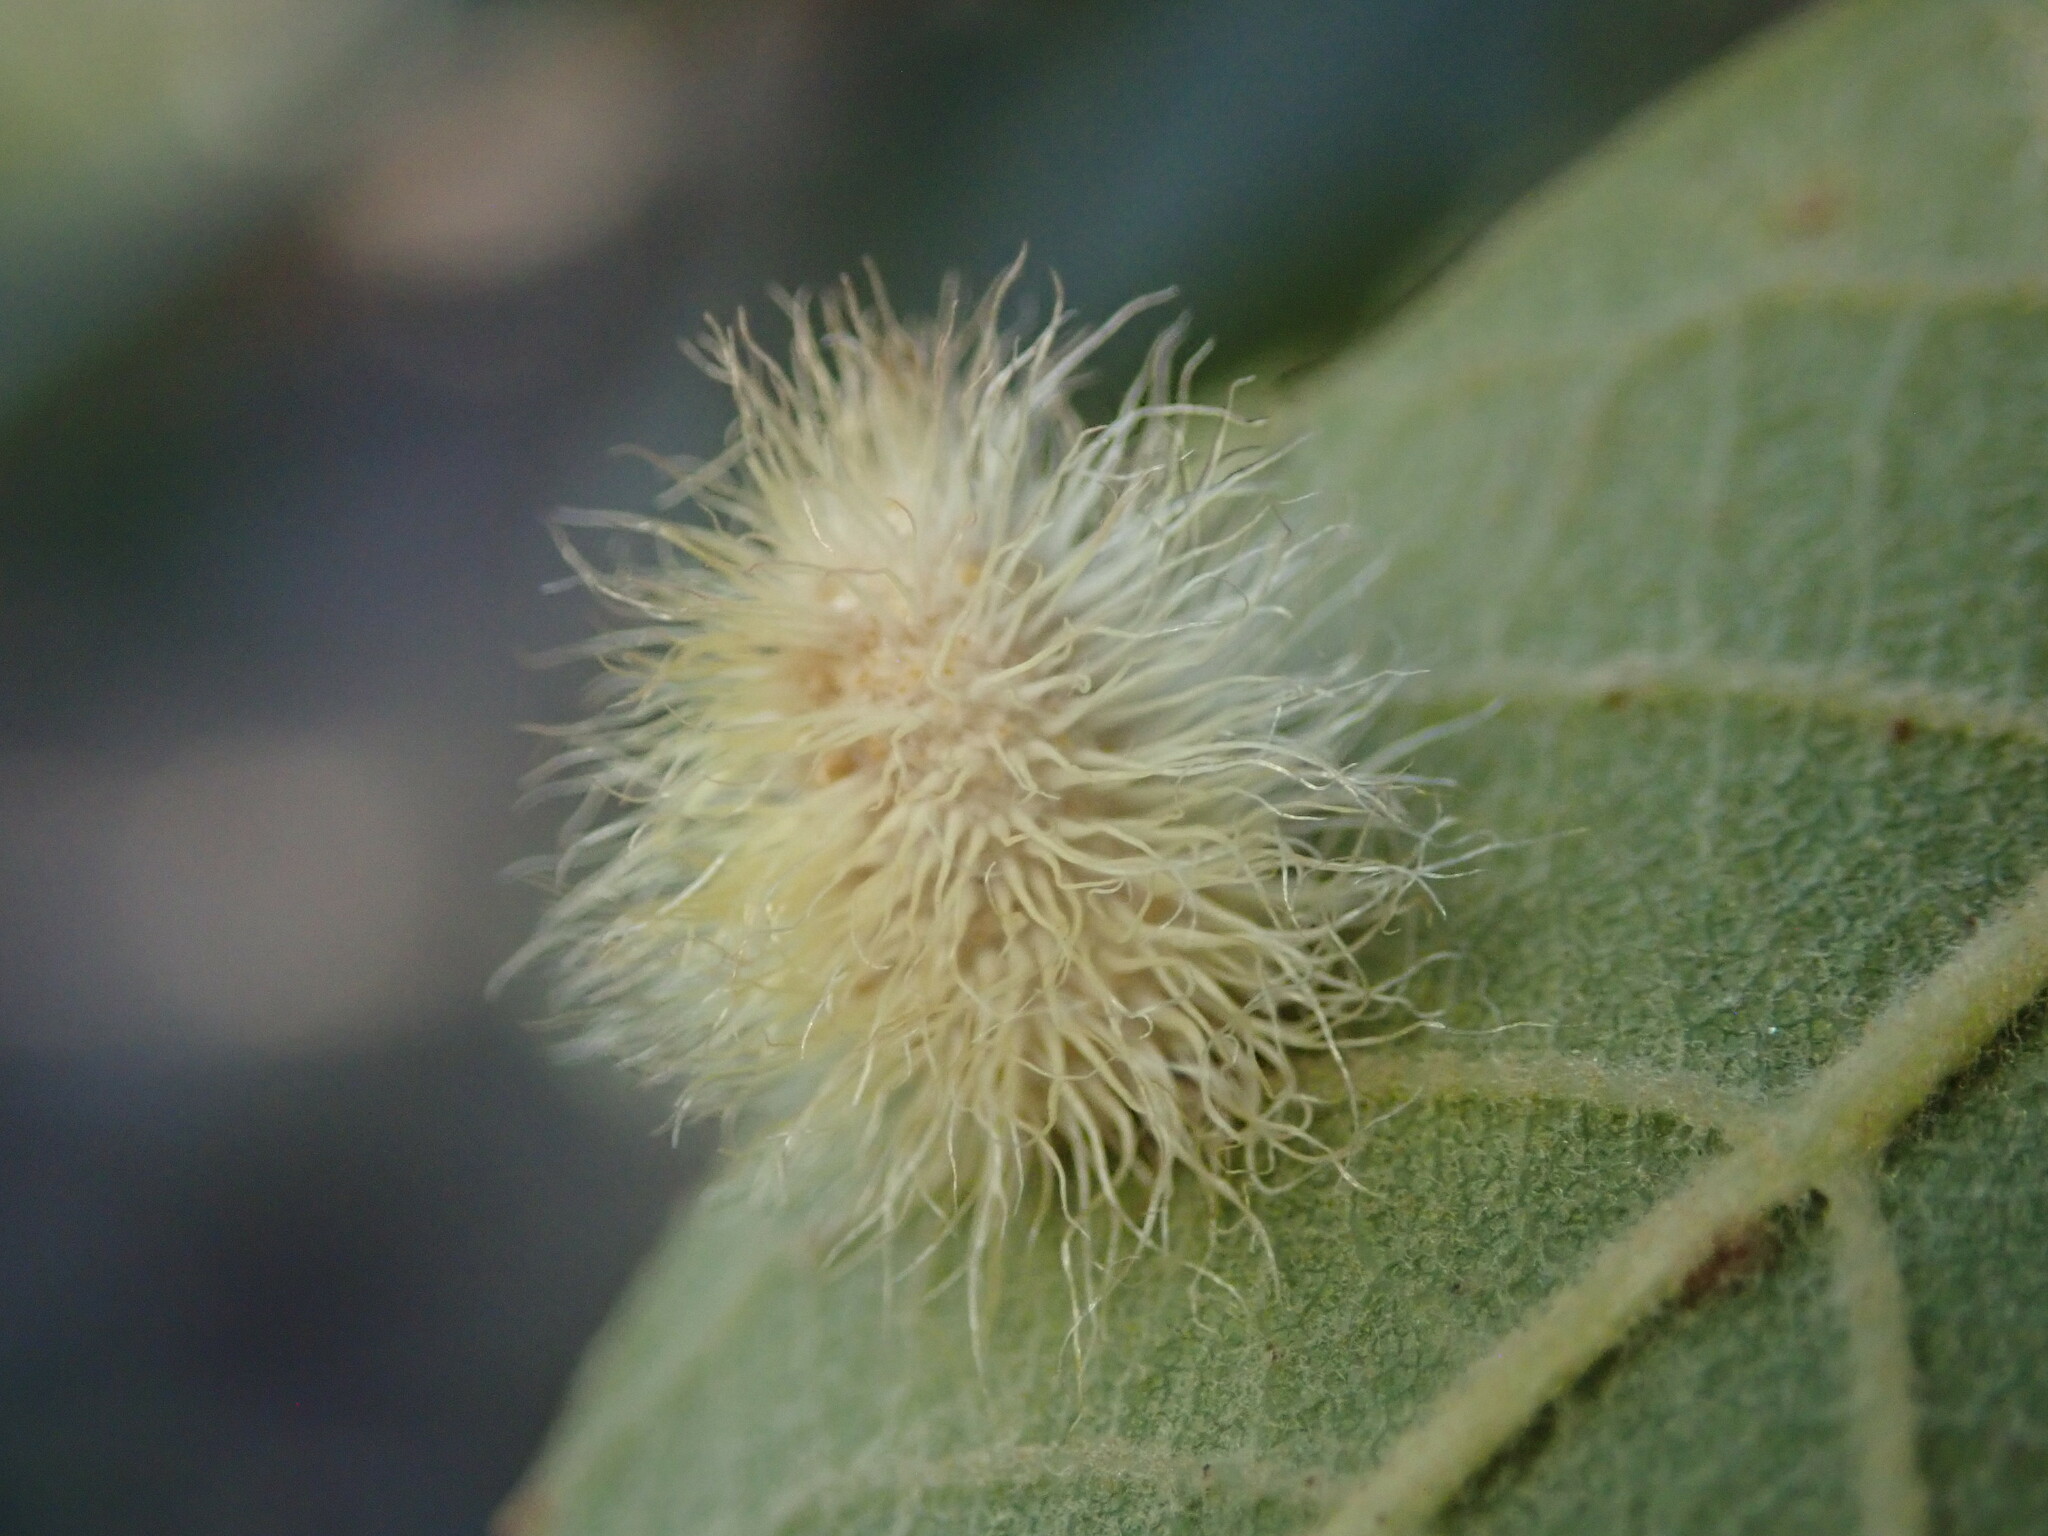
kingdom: Animalia
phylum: Arthropoda
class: Insecta
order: Hymenoptera
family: Cynipidae
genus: Andricus
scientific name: Andricus
